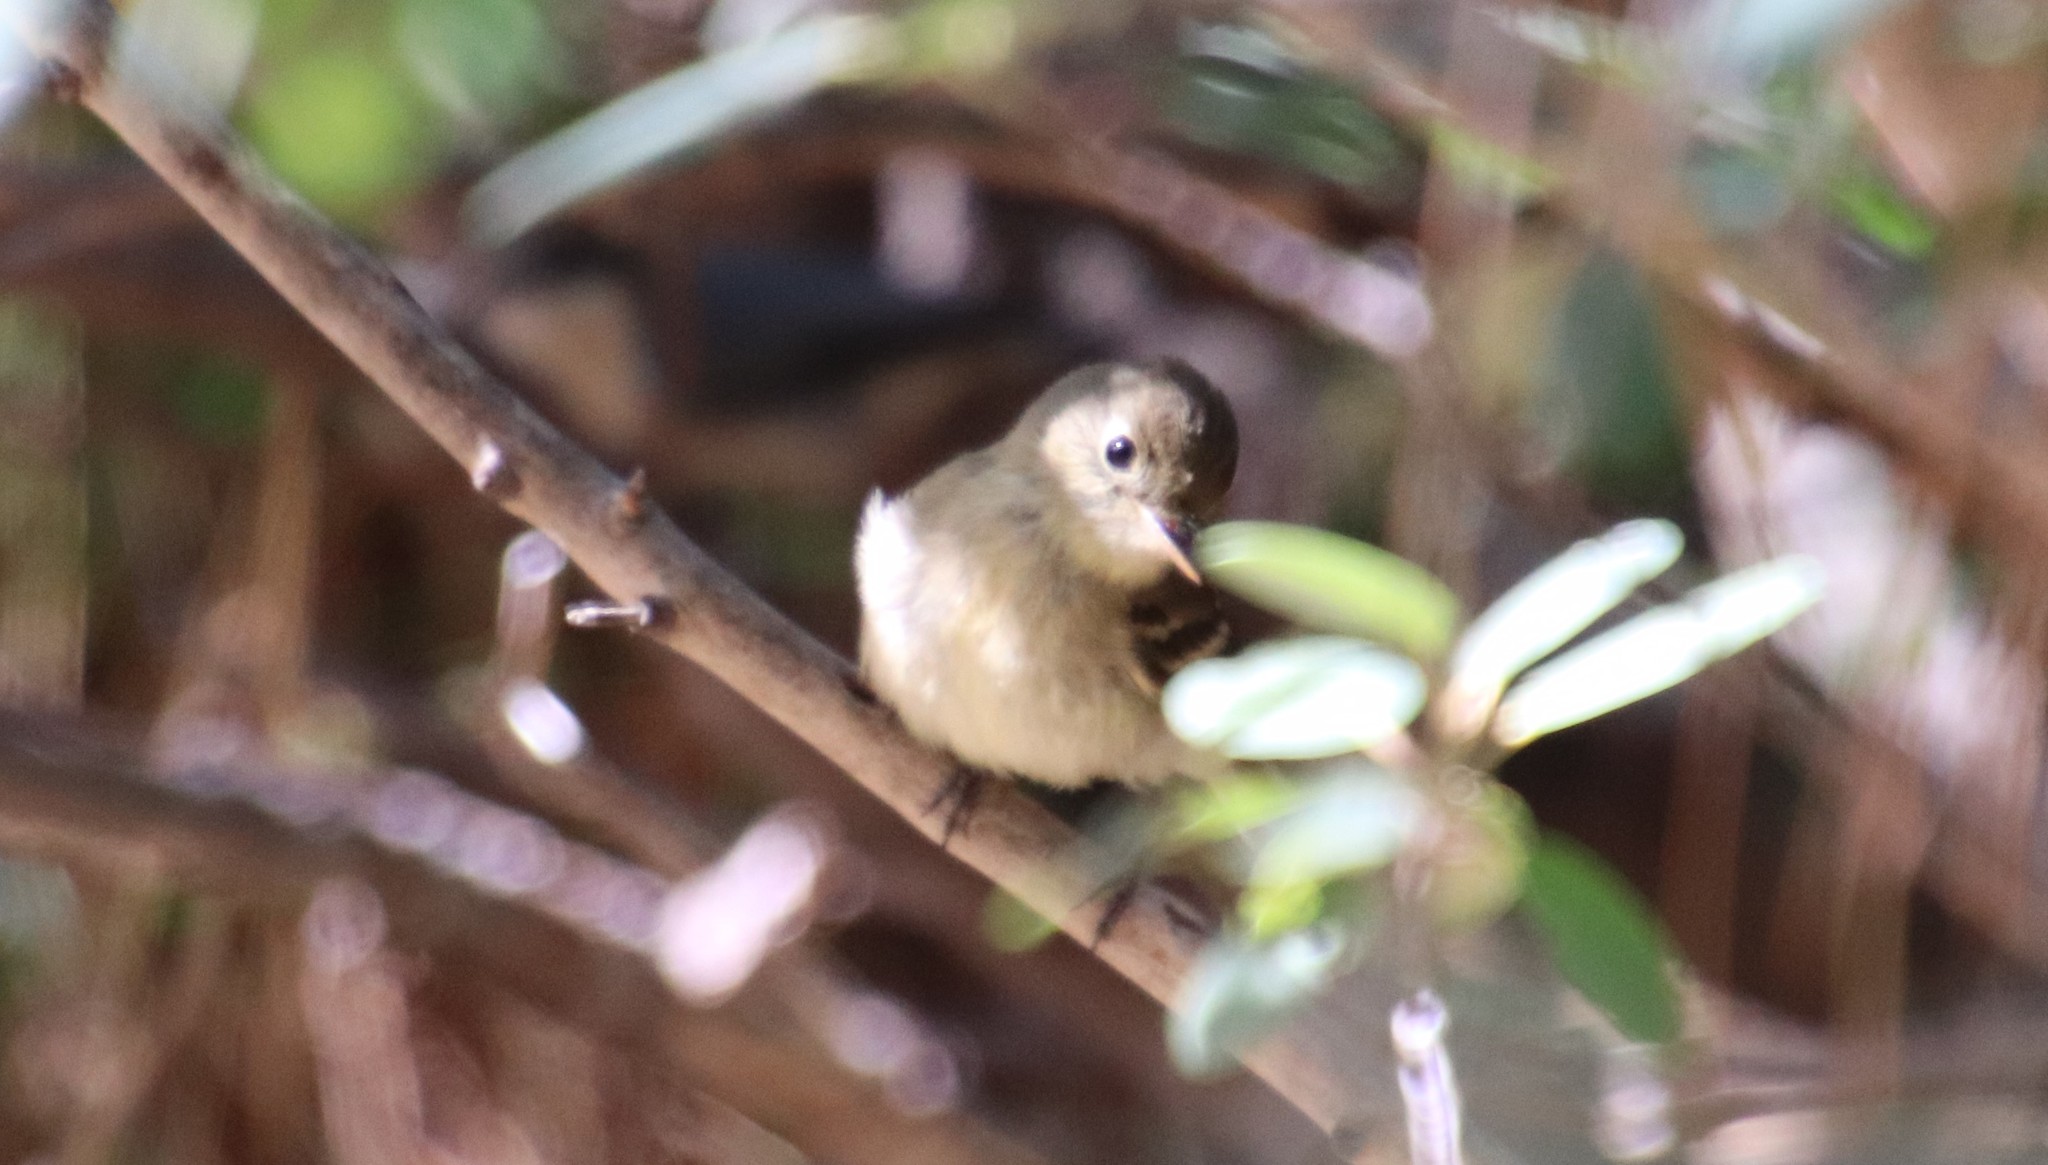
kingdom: Animalia
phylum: Chordata
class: Aves
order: Passeriformes
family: Tyrannidae
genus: Empidonax
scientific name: Empidonax difficilis
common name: Pacific-slope flycatcher
